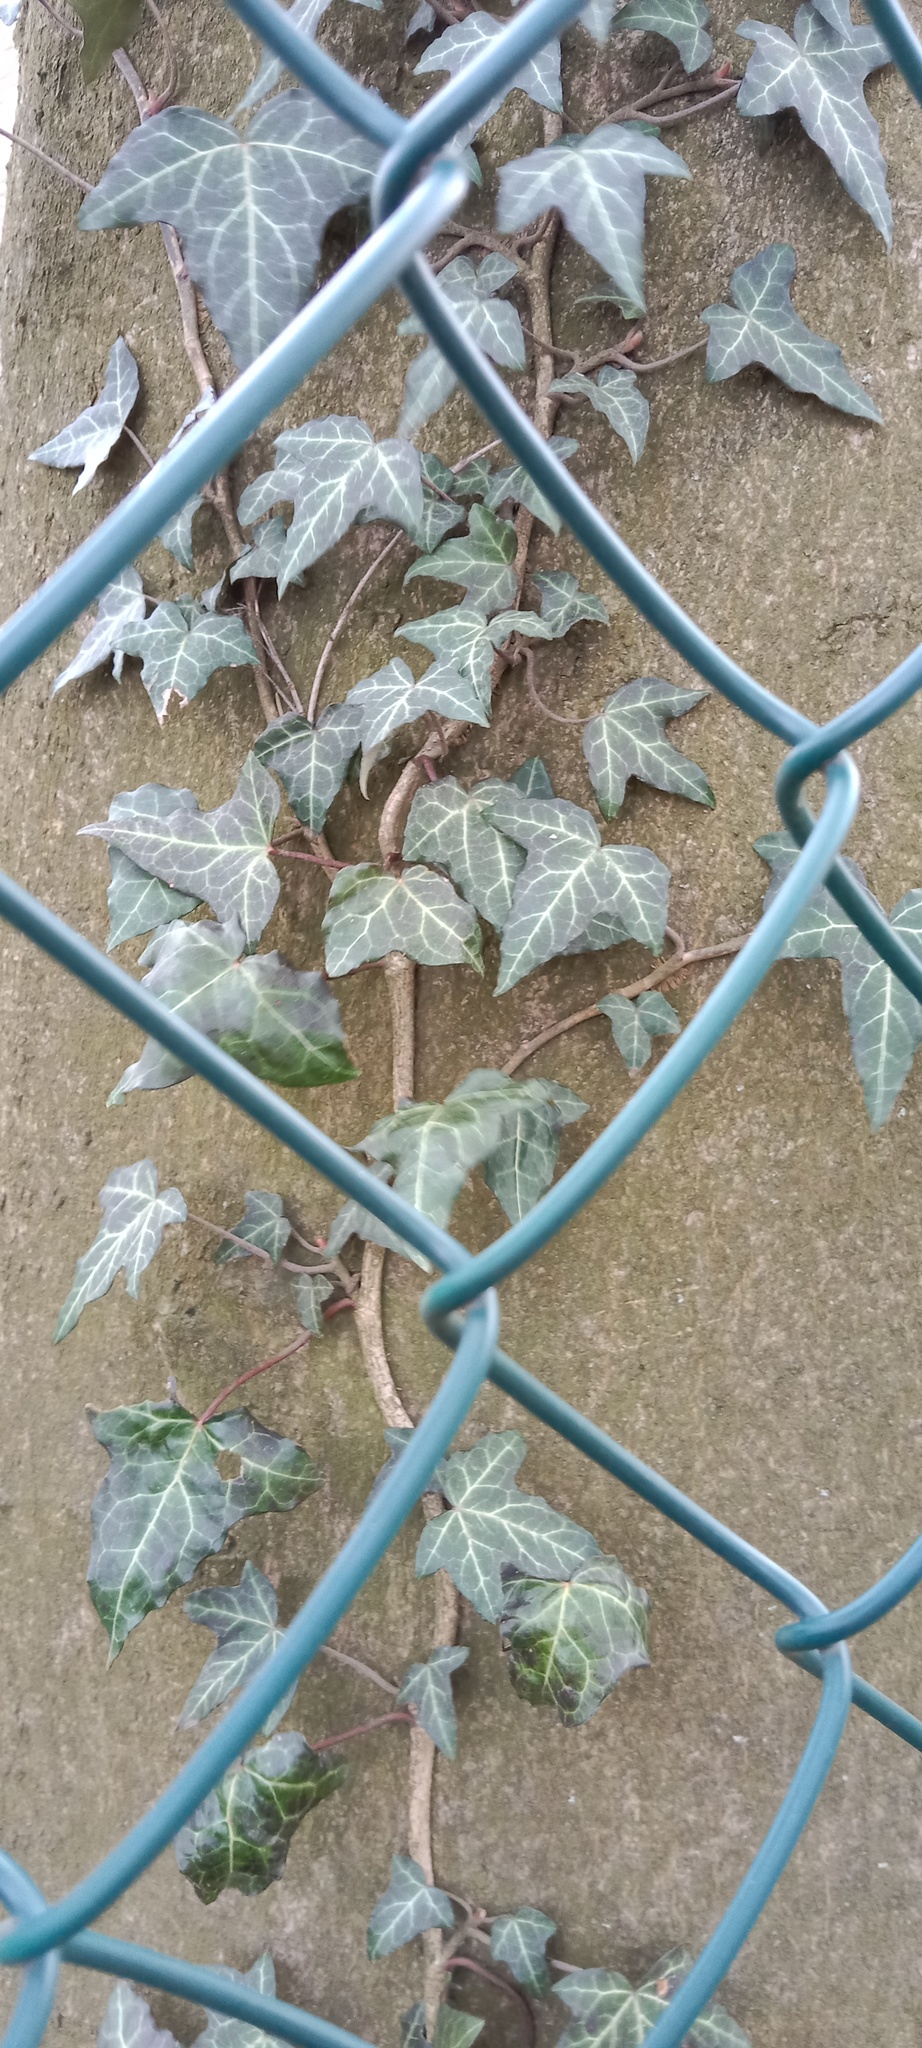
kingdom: Plantae
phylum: Tracheophyta
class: Magnoliopsida
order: Apiales
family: Araliaceae
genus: Hedera
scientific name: Hedera helix
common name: Ivy
